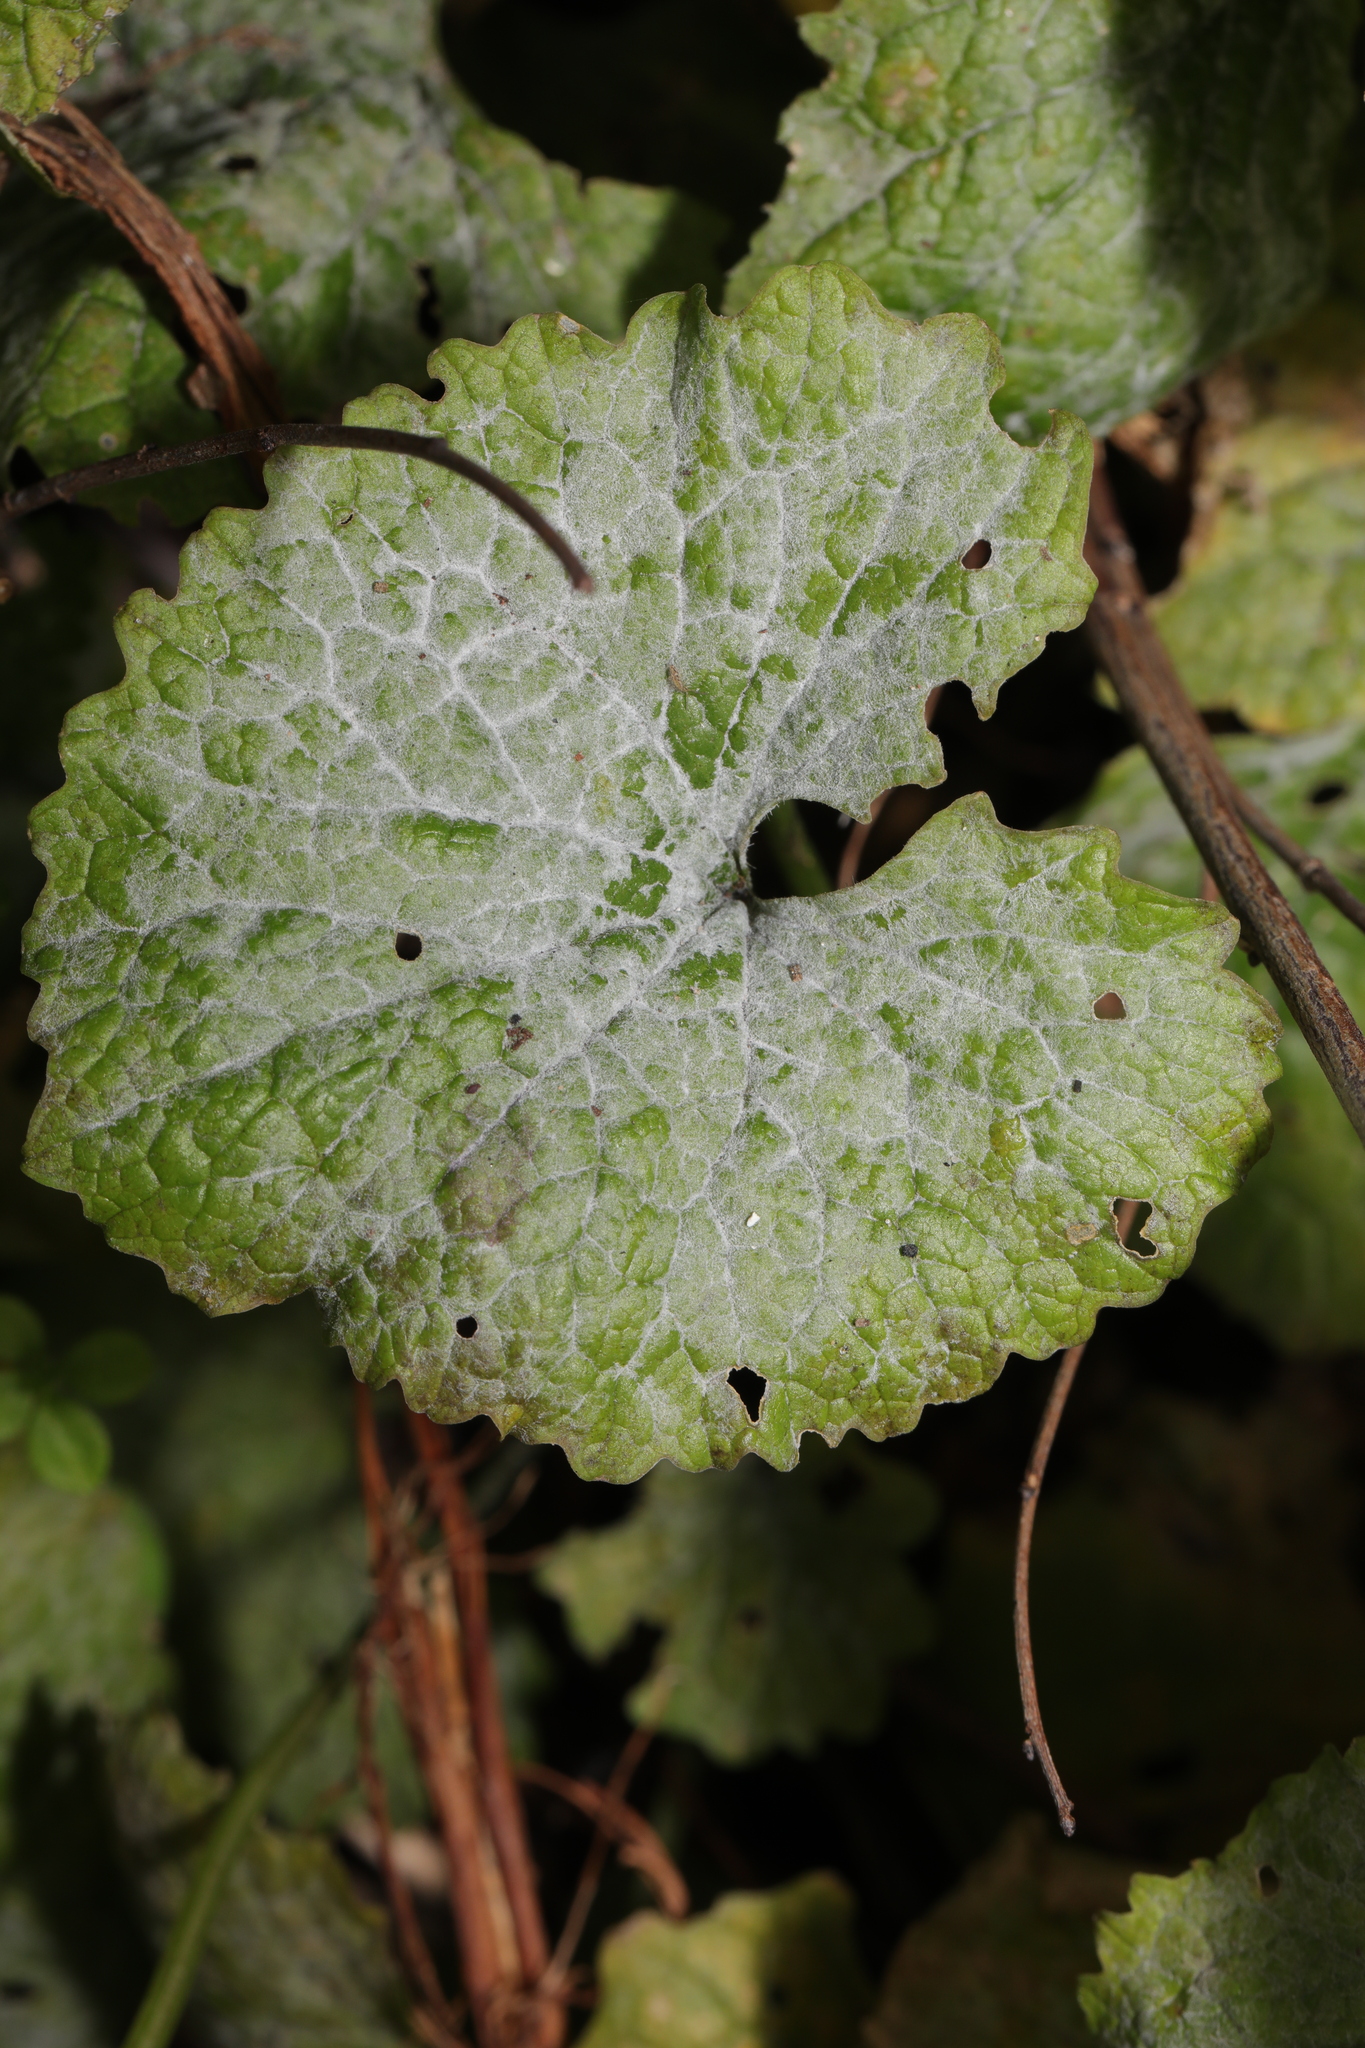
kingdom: Fungi
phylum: Ascomycota
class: Leotiomycetes
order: Helotiales
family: Erysiphaceae
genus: Erysiphe
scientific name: Erysiphe cruciferarum
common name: Brassica powdery mildew
